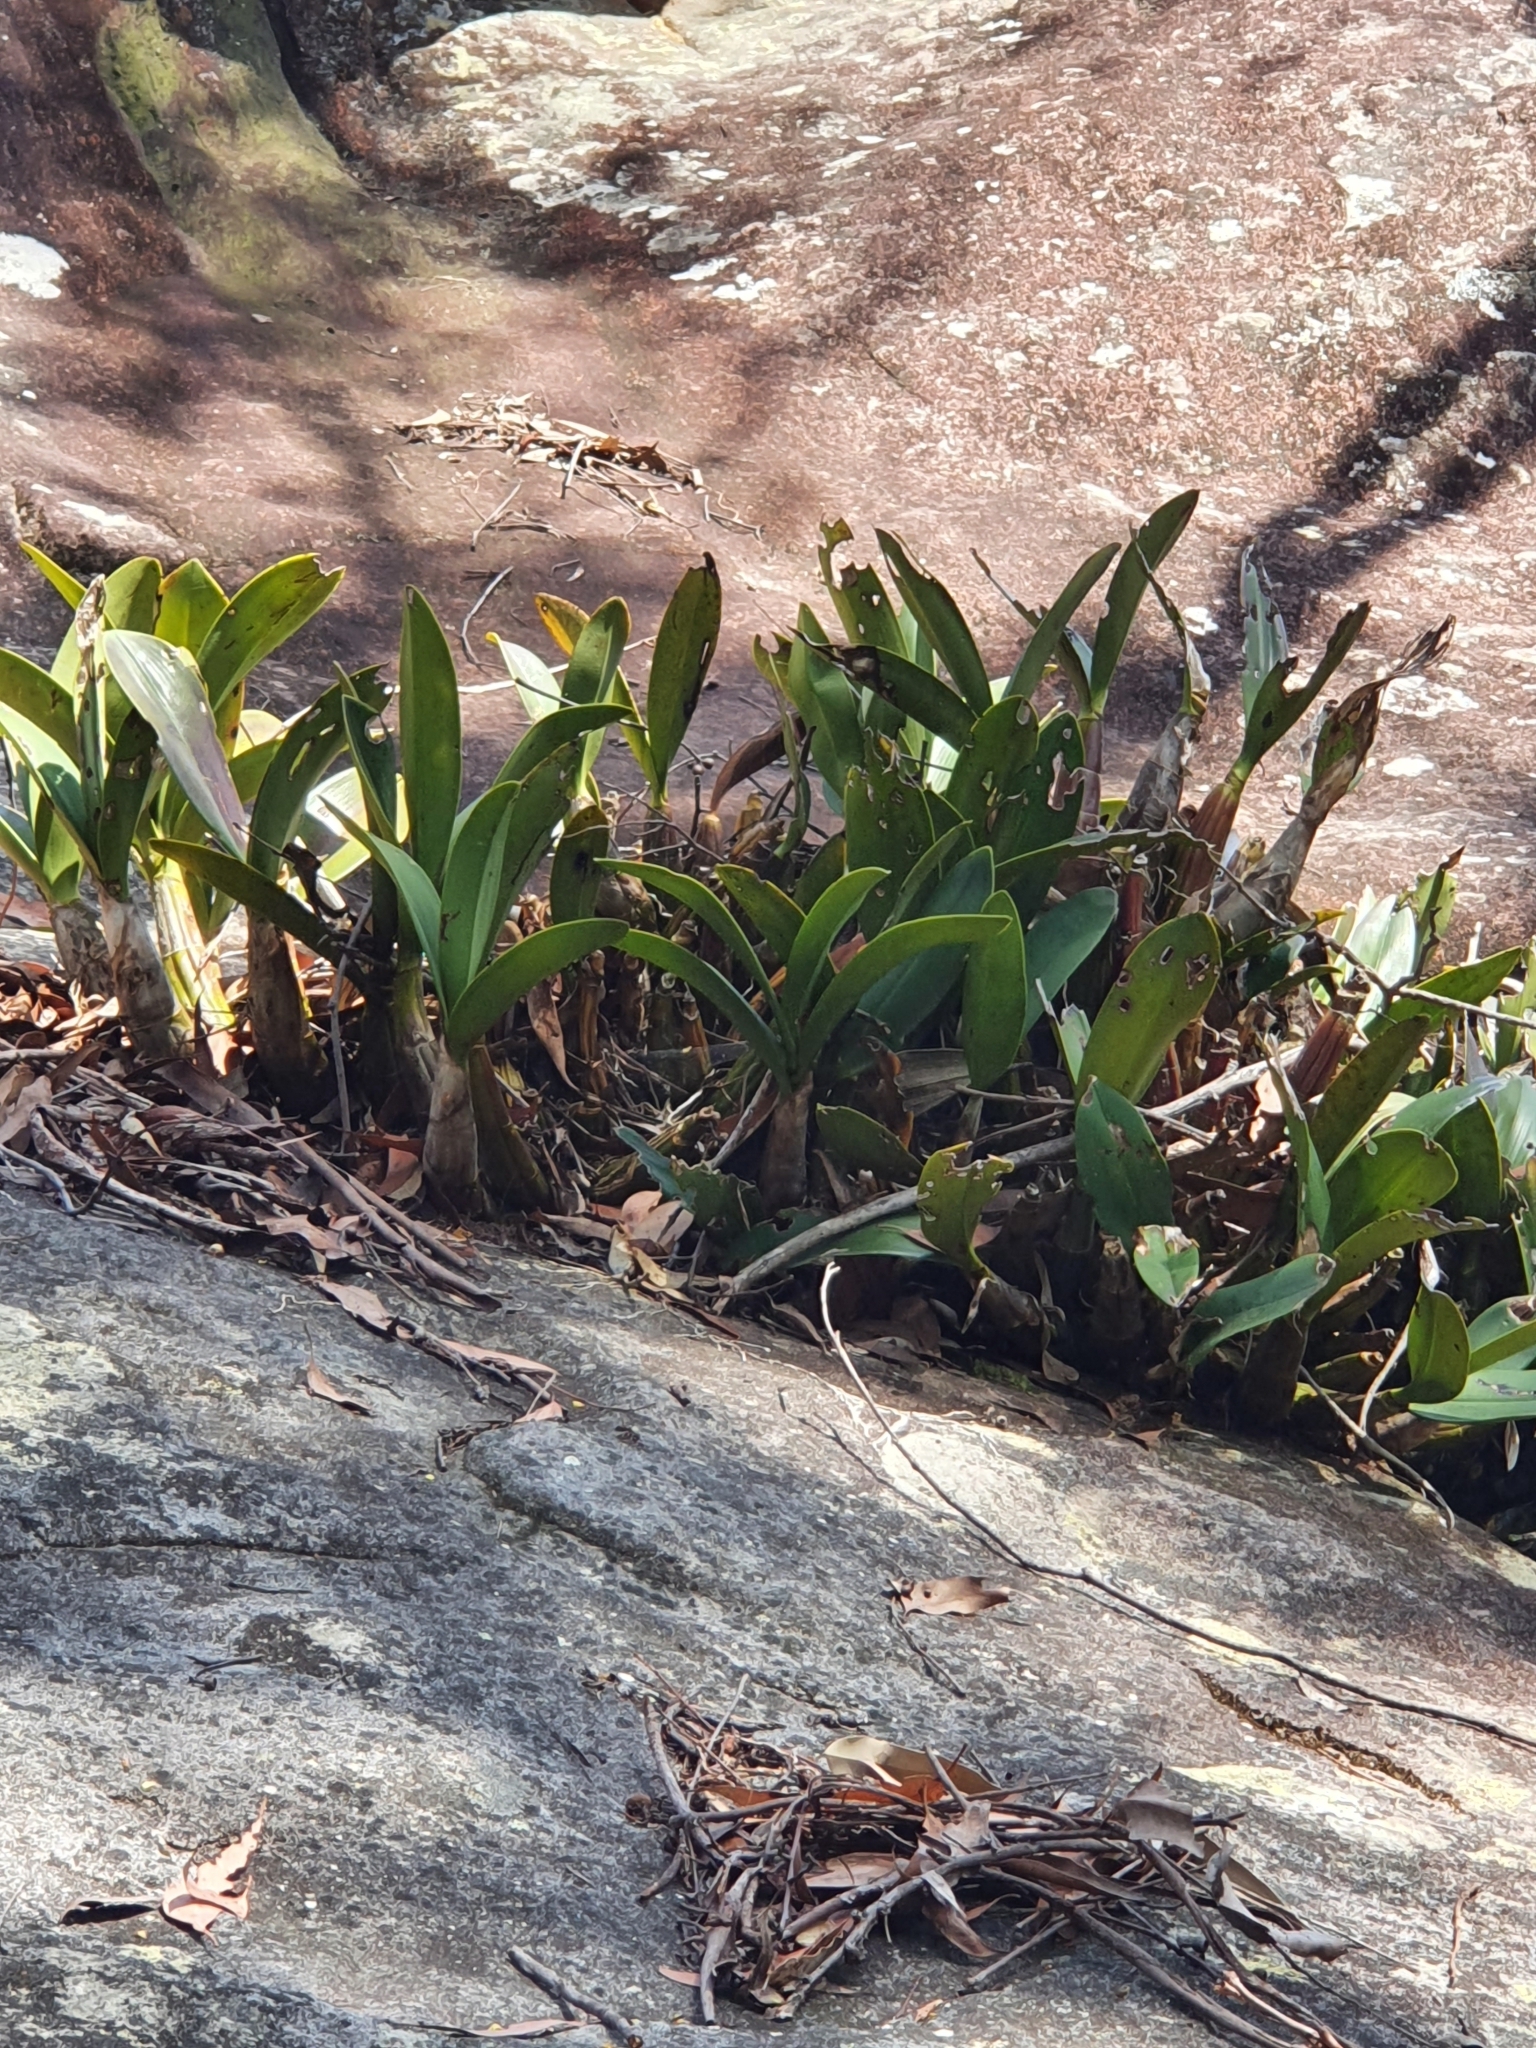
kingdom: Plantae
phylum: Tracheophyta
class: Liliopsida
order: Asparagales
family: Orchidaceae
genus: Dendrobium
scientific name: Dendrobium speciosum
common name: Rock-lily
